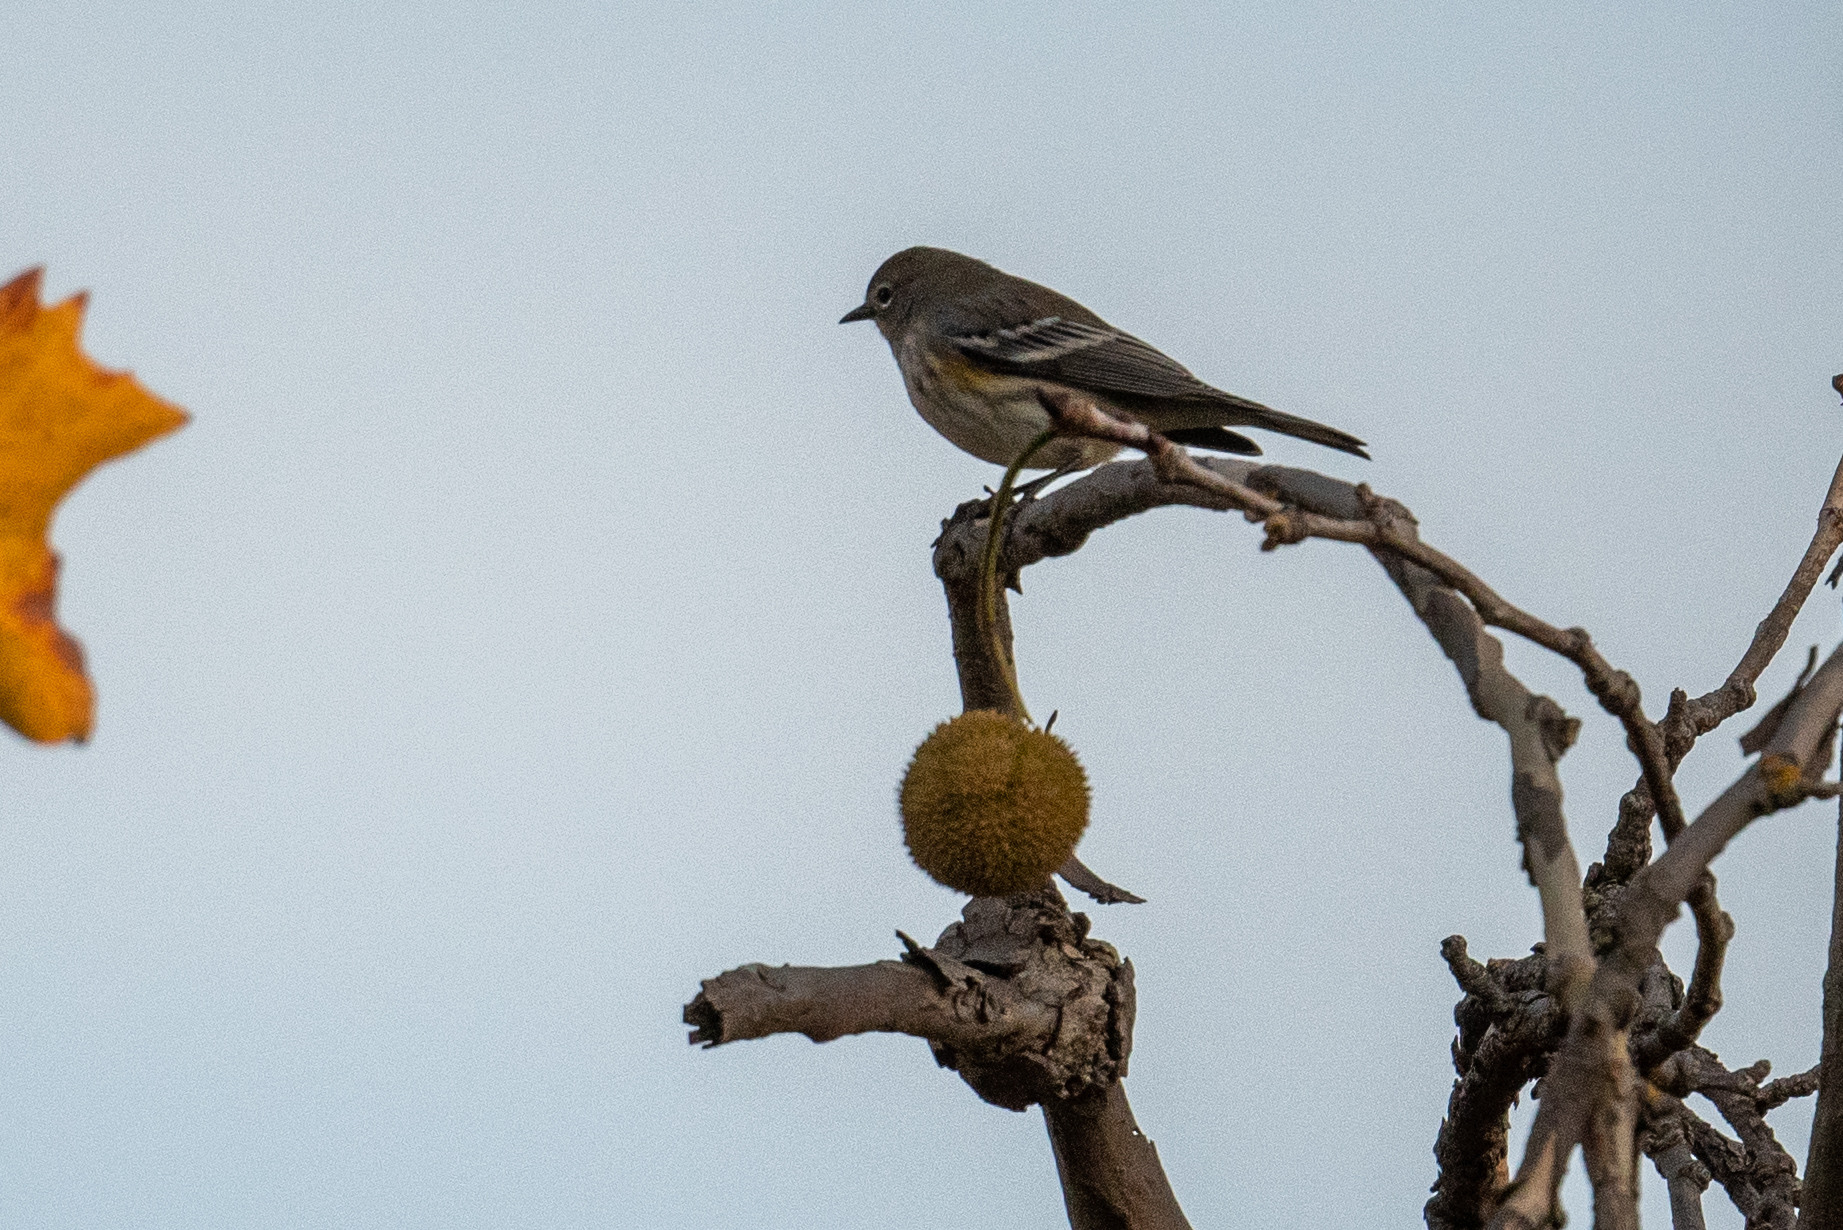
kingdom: Animalia
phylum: Chordata
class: Aves
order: Passeriformes
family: Parulidae
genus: Setophaga
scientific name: Setophaga auduboni
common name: Audubon's warbler
